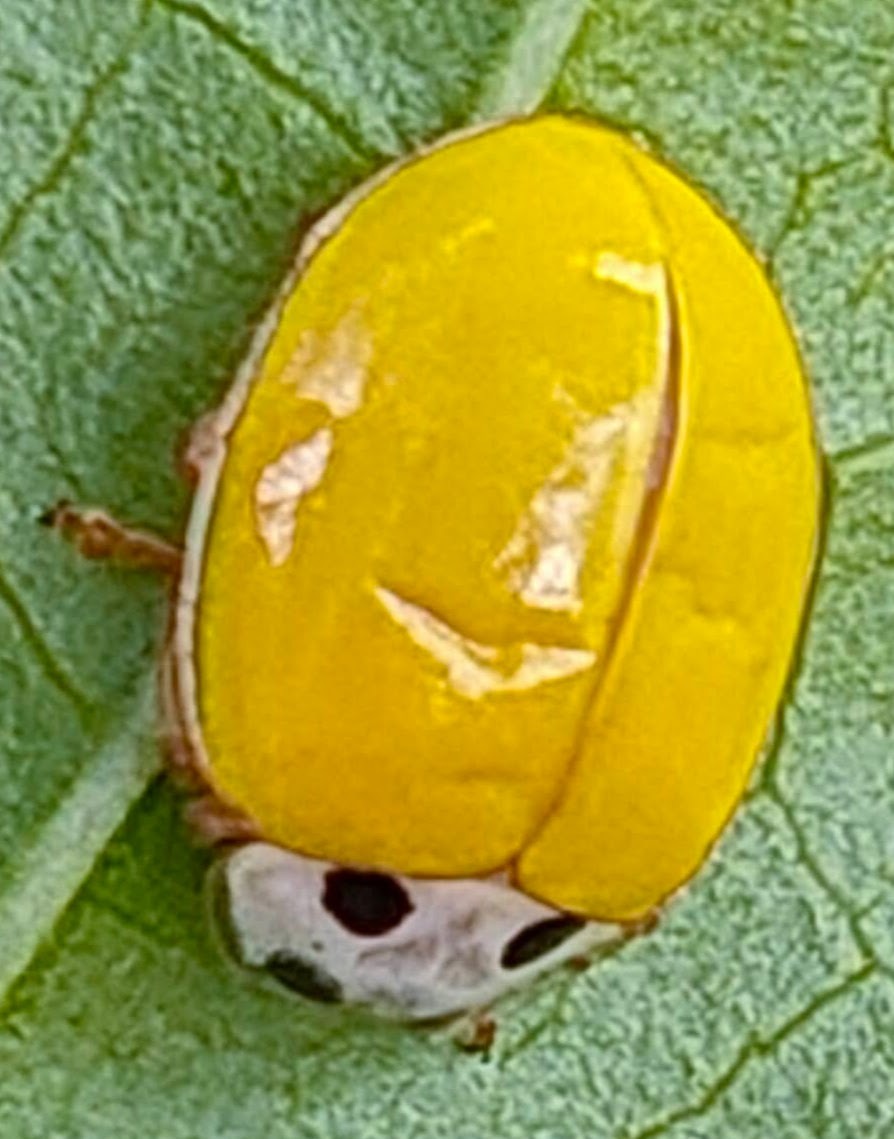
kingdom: Animalia
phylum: Arthropoda
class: Insecta
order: Coleoptera
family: Coccinellidae
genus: Illeis
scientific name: Illeis koebelei
